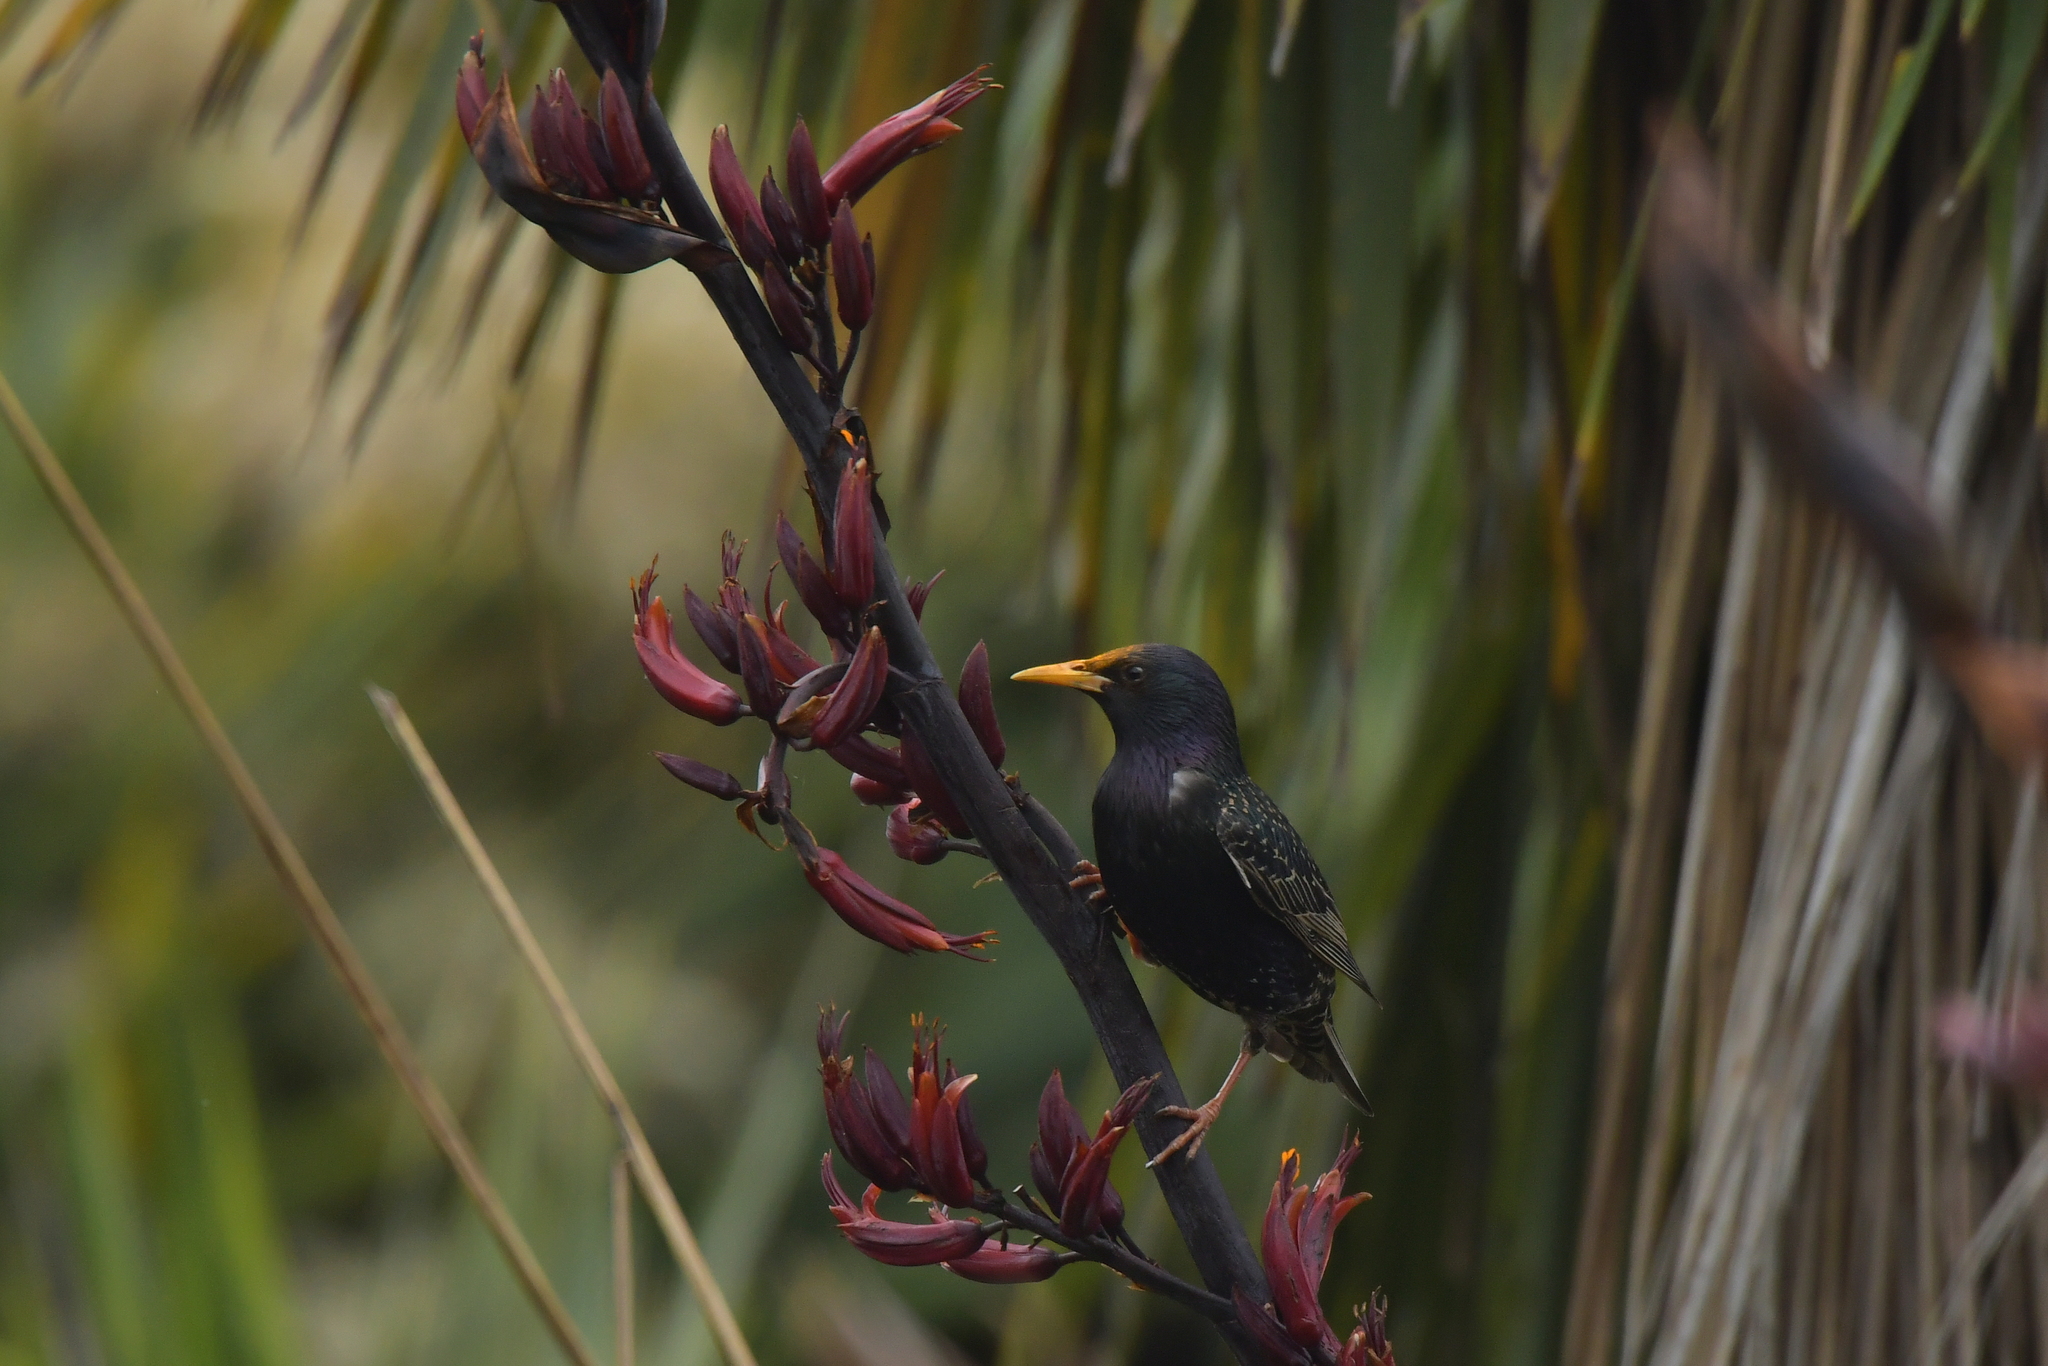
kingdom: Animalia
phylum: Chordata
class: Aves
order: Passeriformes
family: Sturnidae
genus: Sturnus
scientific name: Sturnus vulgaris
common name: Common starling
